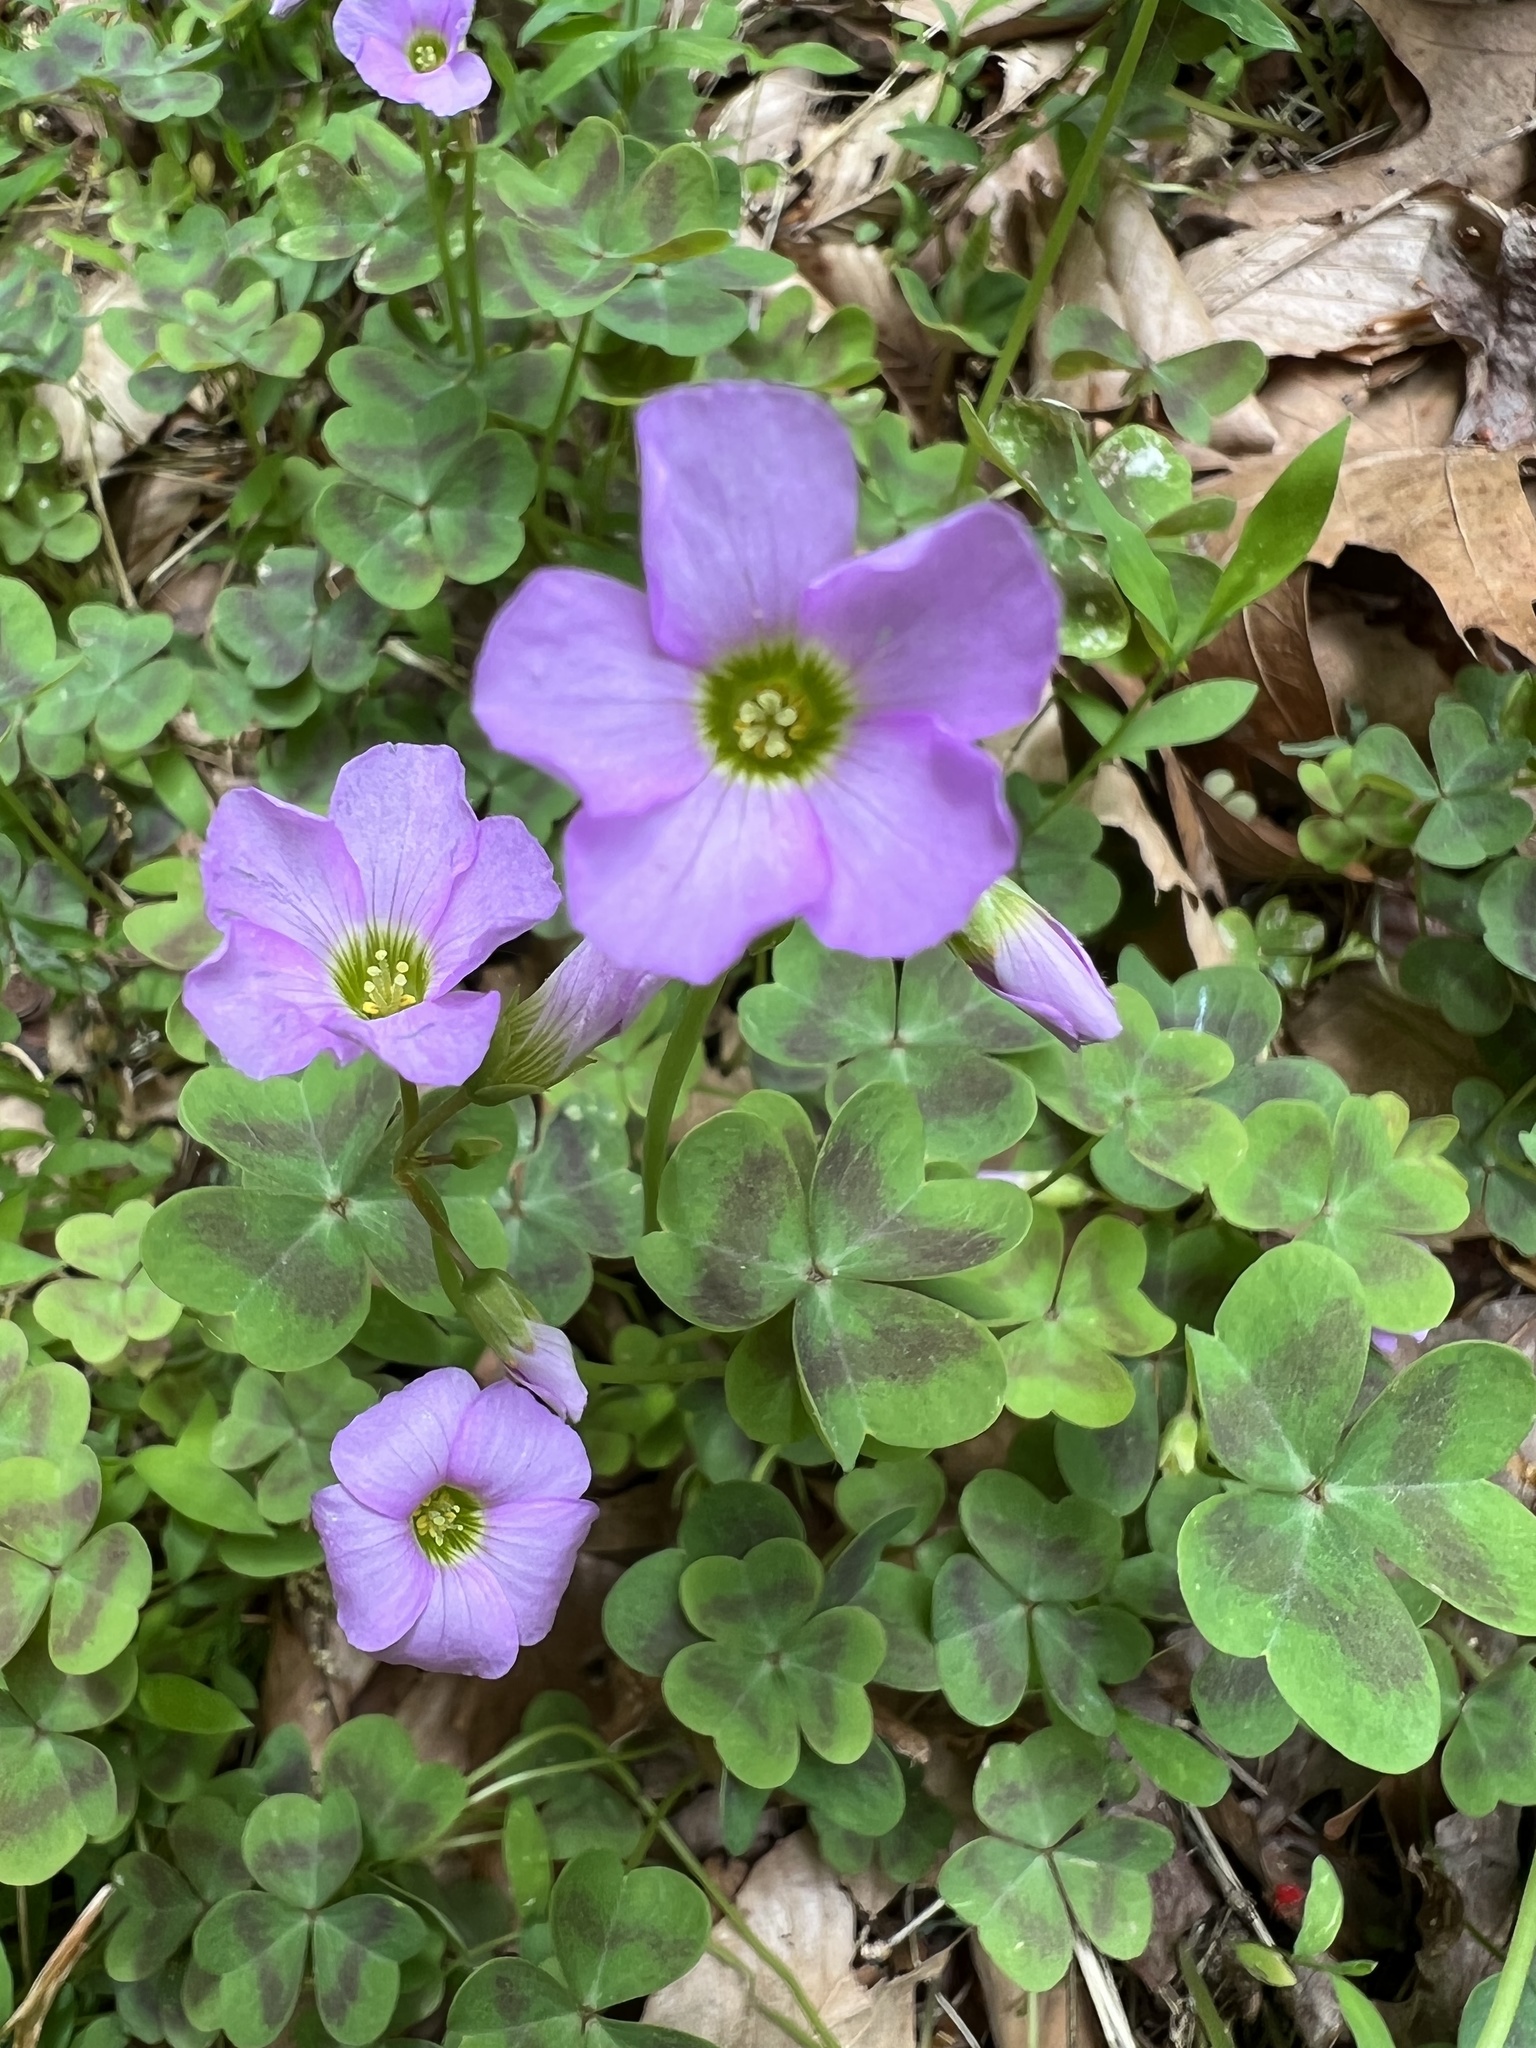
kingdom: Plantae
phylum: Tracheophyta
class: Magnoliopsida
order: Oxalidales
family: Oxalidaceae
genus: Oxalis
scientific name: Oxalis violacea
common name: Violet wood-sorrel
